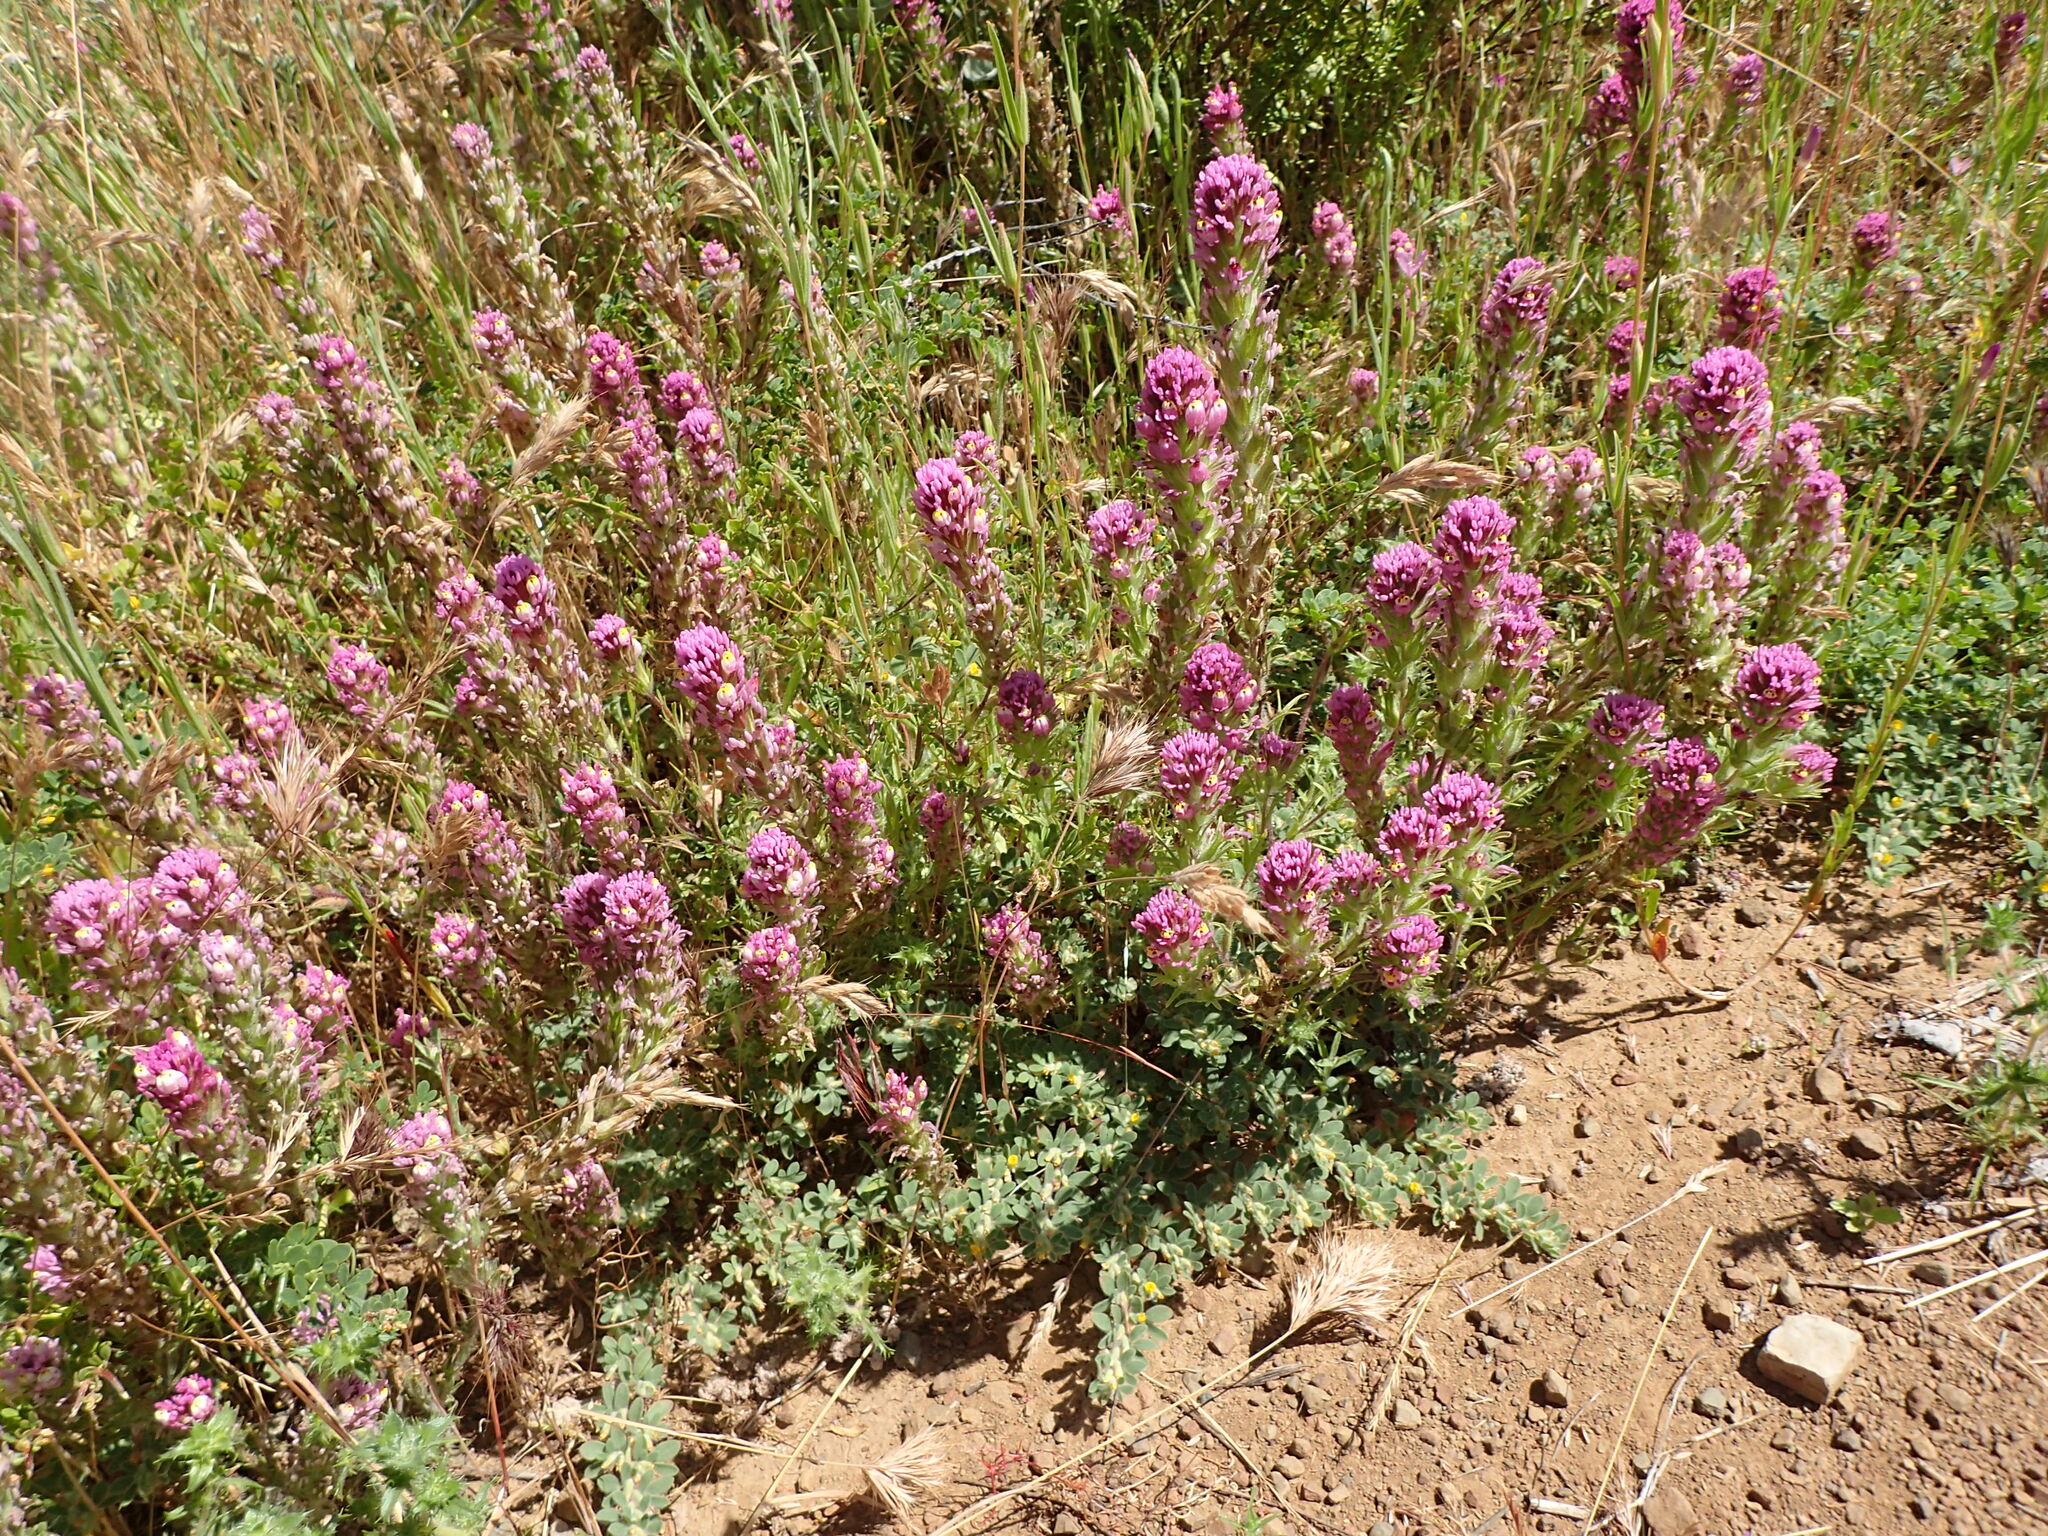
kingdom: Plantae
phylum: Tracheophyta
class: Magnoliopsida
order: Lamiales
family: Orobanchaceae
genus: Castilleja
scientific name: Castilleja exserta
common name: Purple owl-clover
